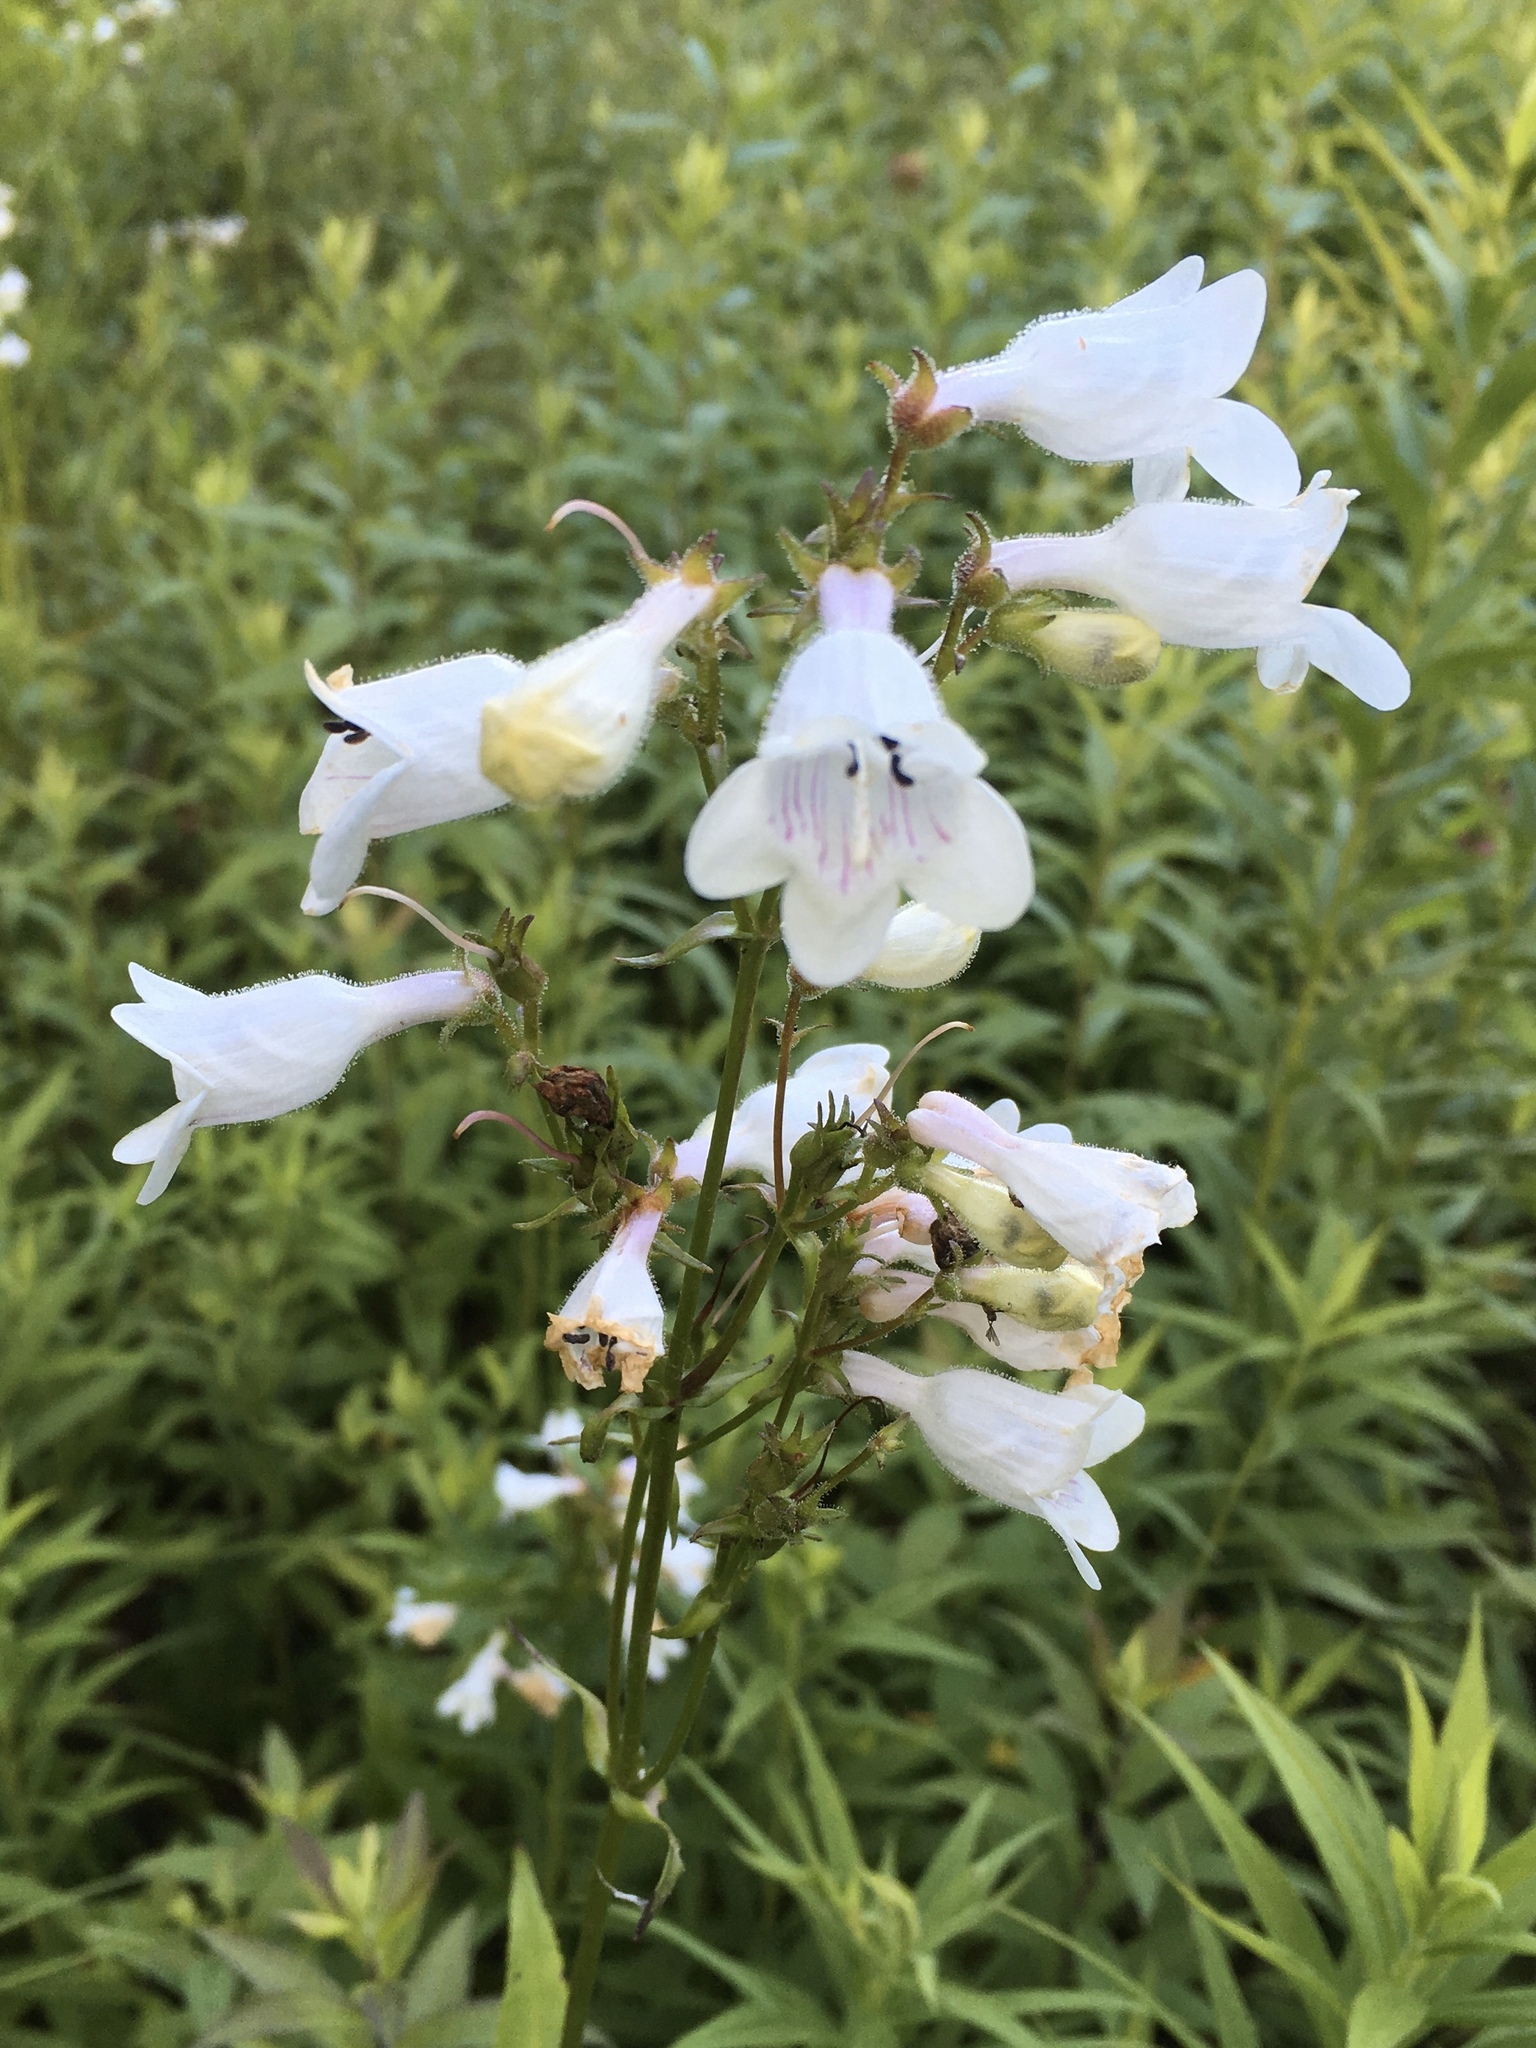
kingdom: Plantae
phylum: Tracheophyta
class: Magnoliopsida
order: Lamiales
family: Plantaginaceae
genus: Penstemon
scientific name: Penstemon digitalis
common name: Foxglove beardtongue
